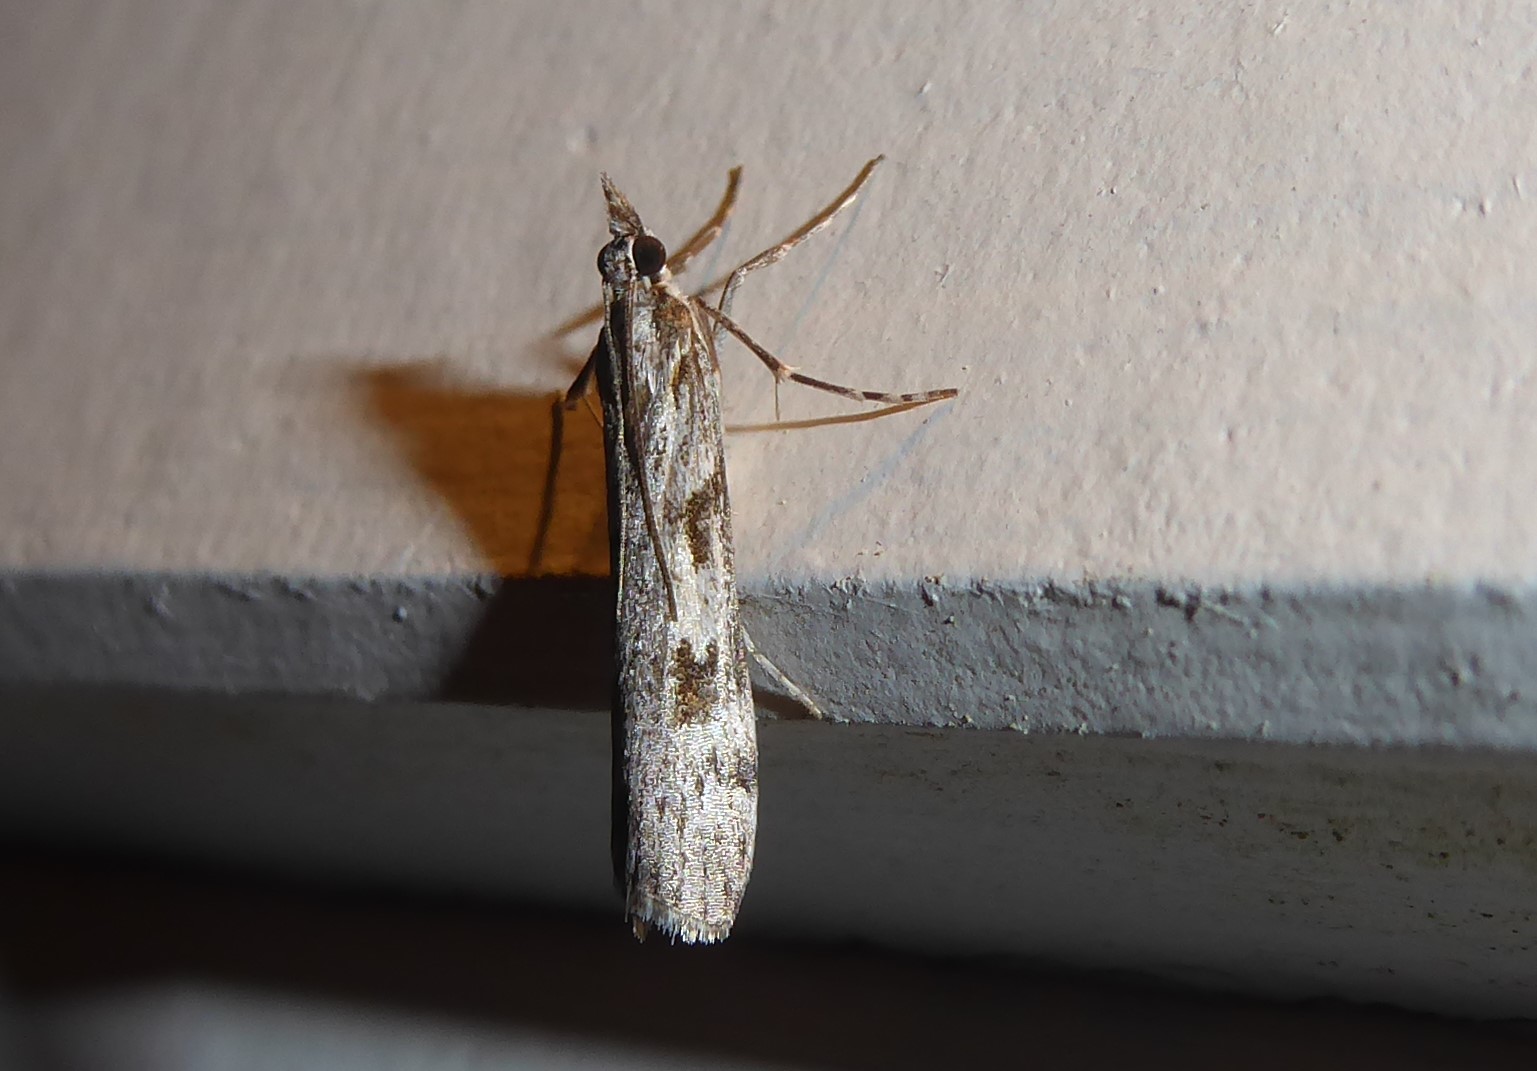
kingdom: Animalia
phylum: Arthropoda
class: Insecta
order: Lepidoptera
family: Crambidae
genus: Scoparia
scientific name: Scoparia halopis
